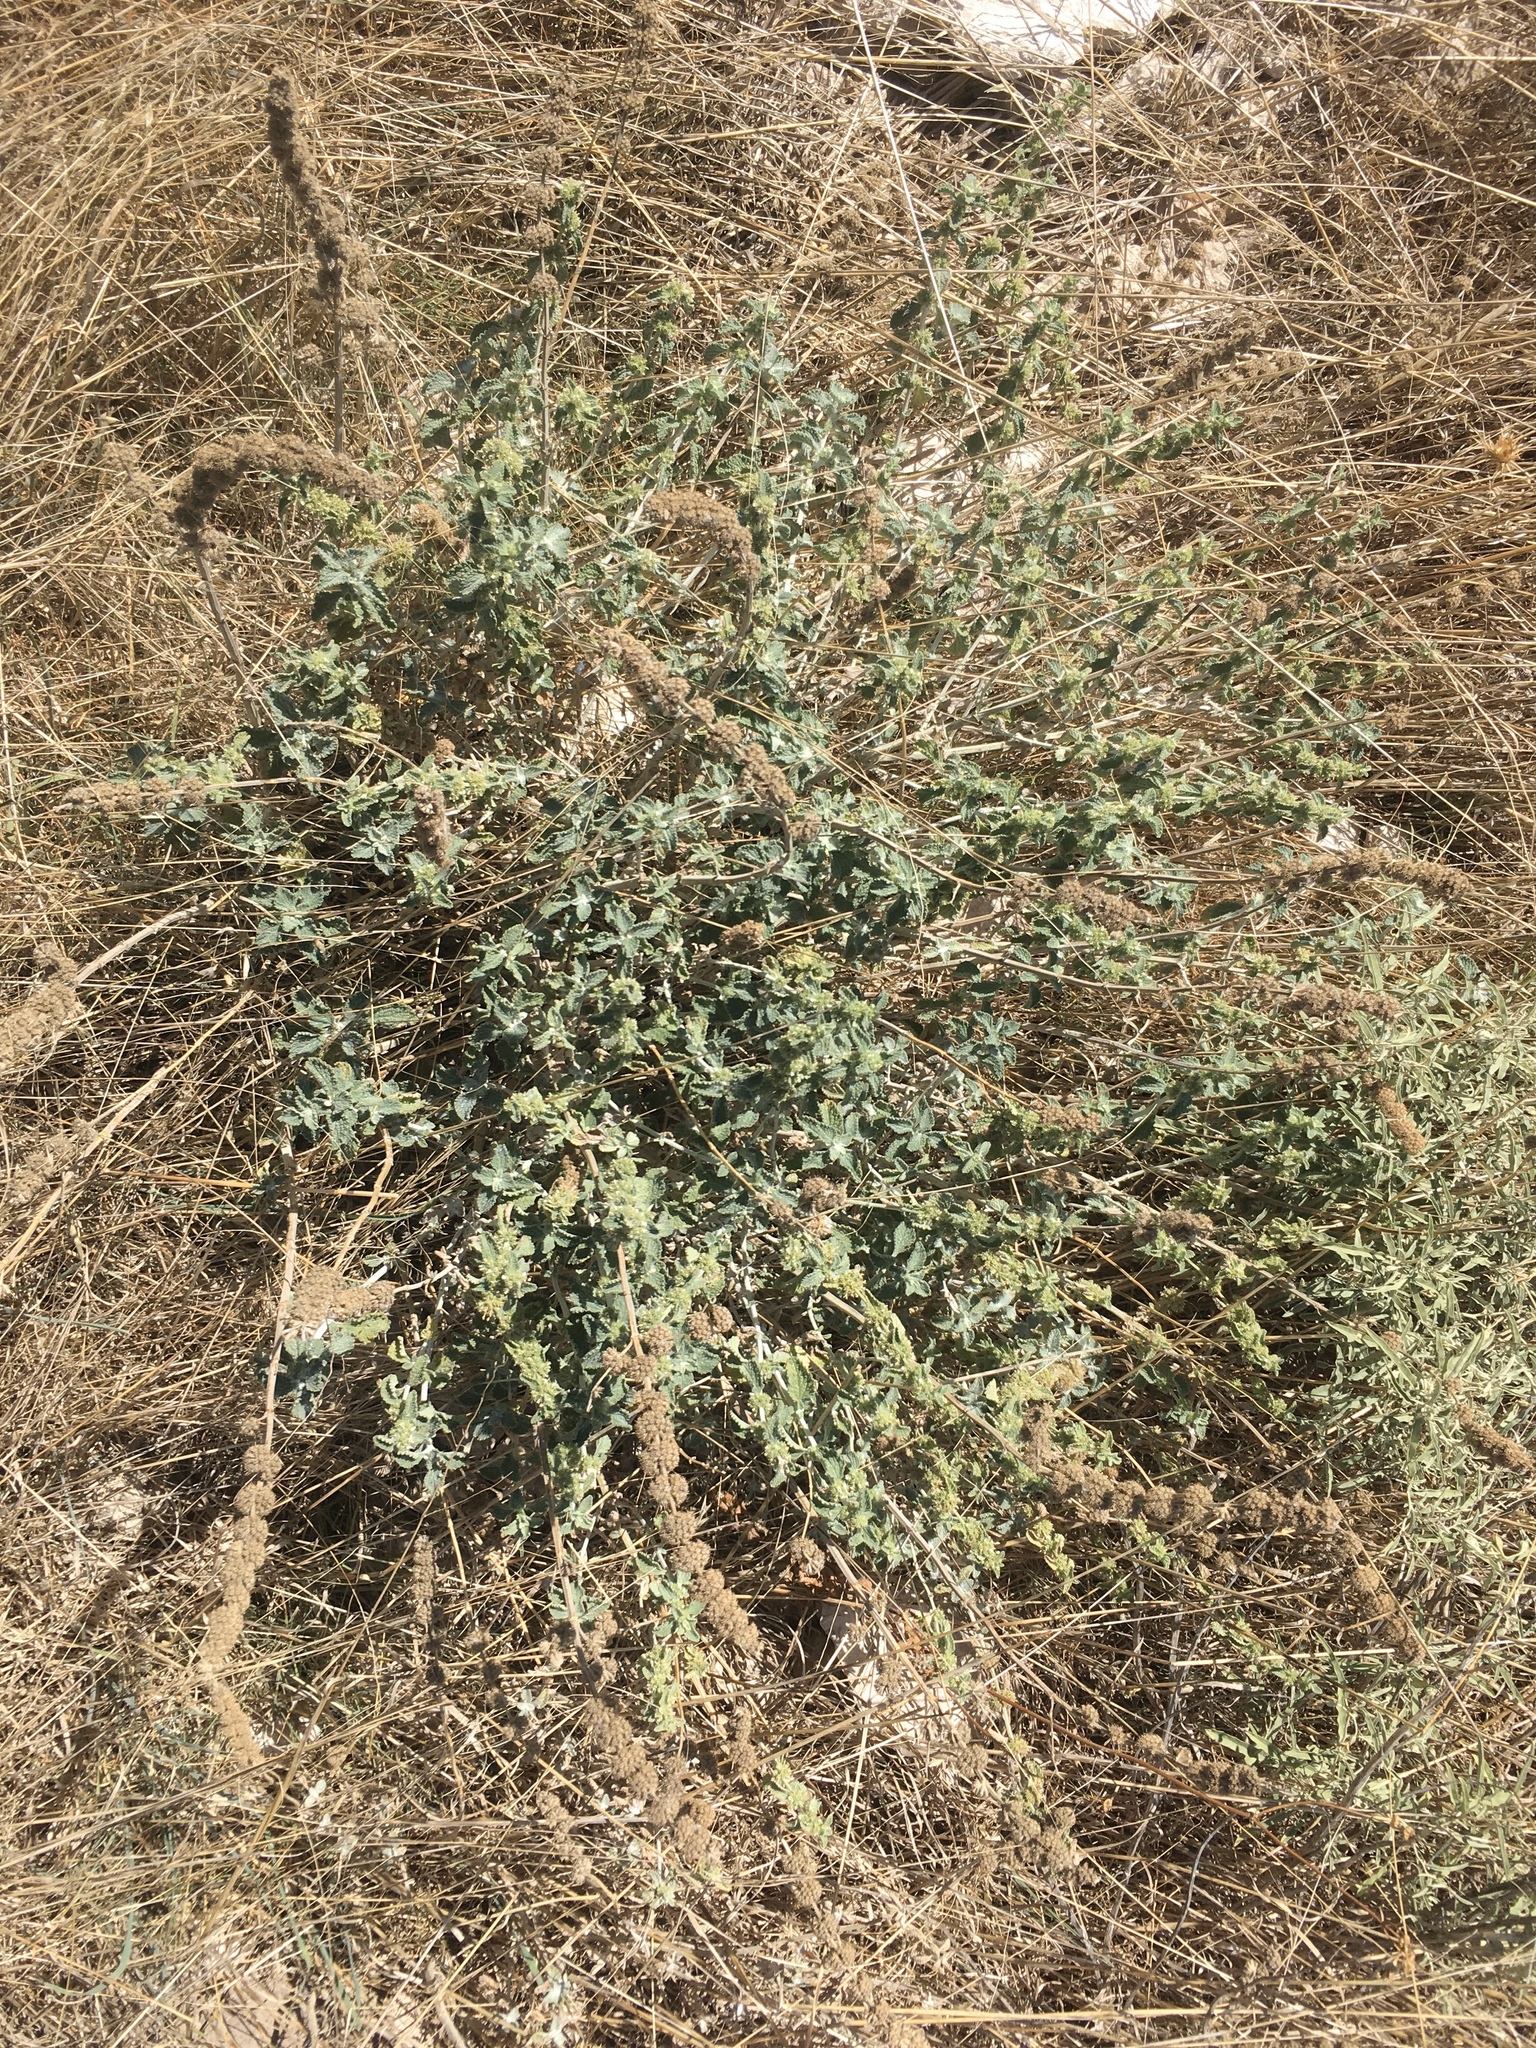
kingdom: Plantae
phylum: Tracheophyta
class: Magnoliopsida
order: Lamiales
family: Lamiaceae
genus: Marrubium
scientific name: Marrubium vulgare
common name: Horehound
